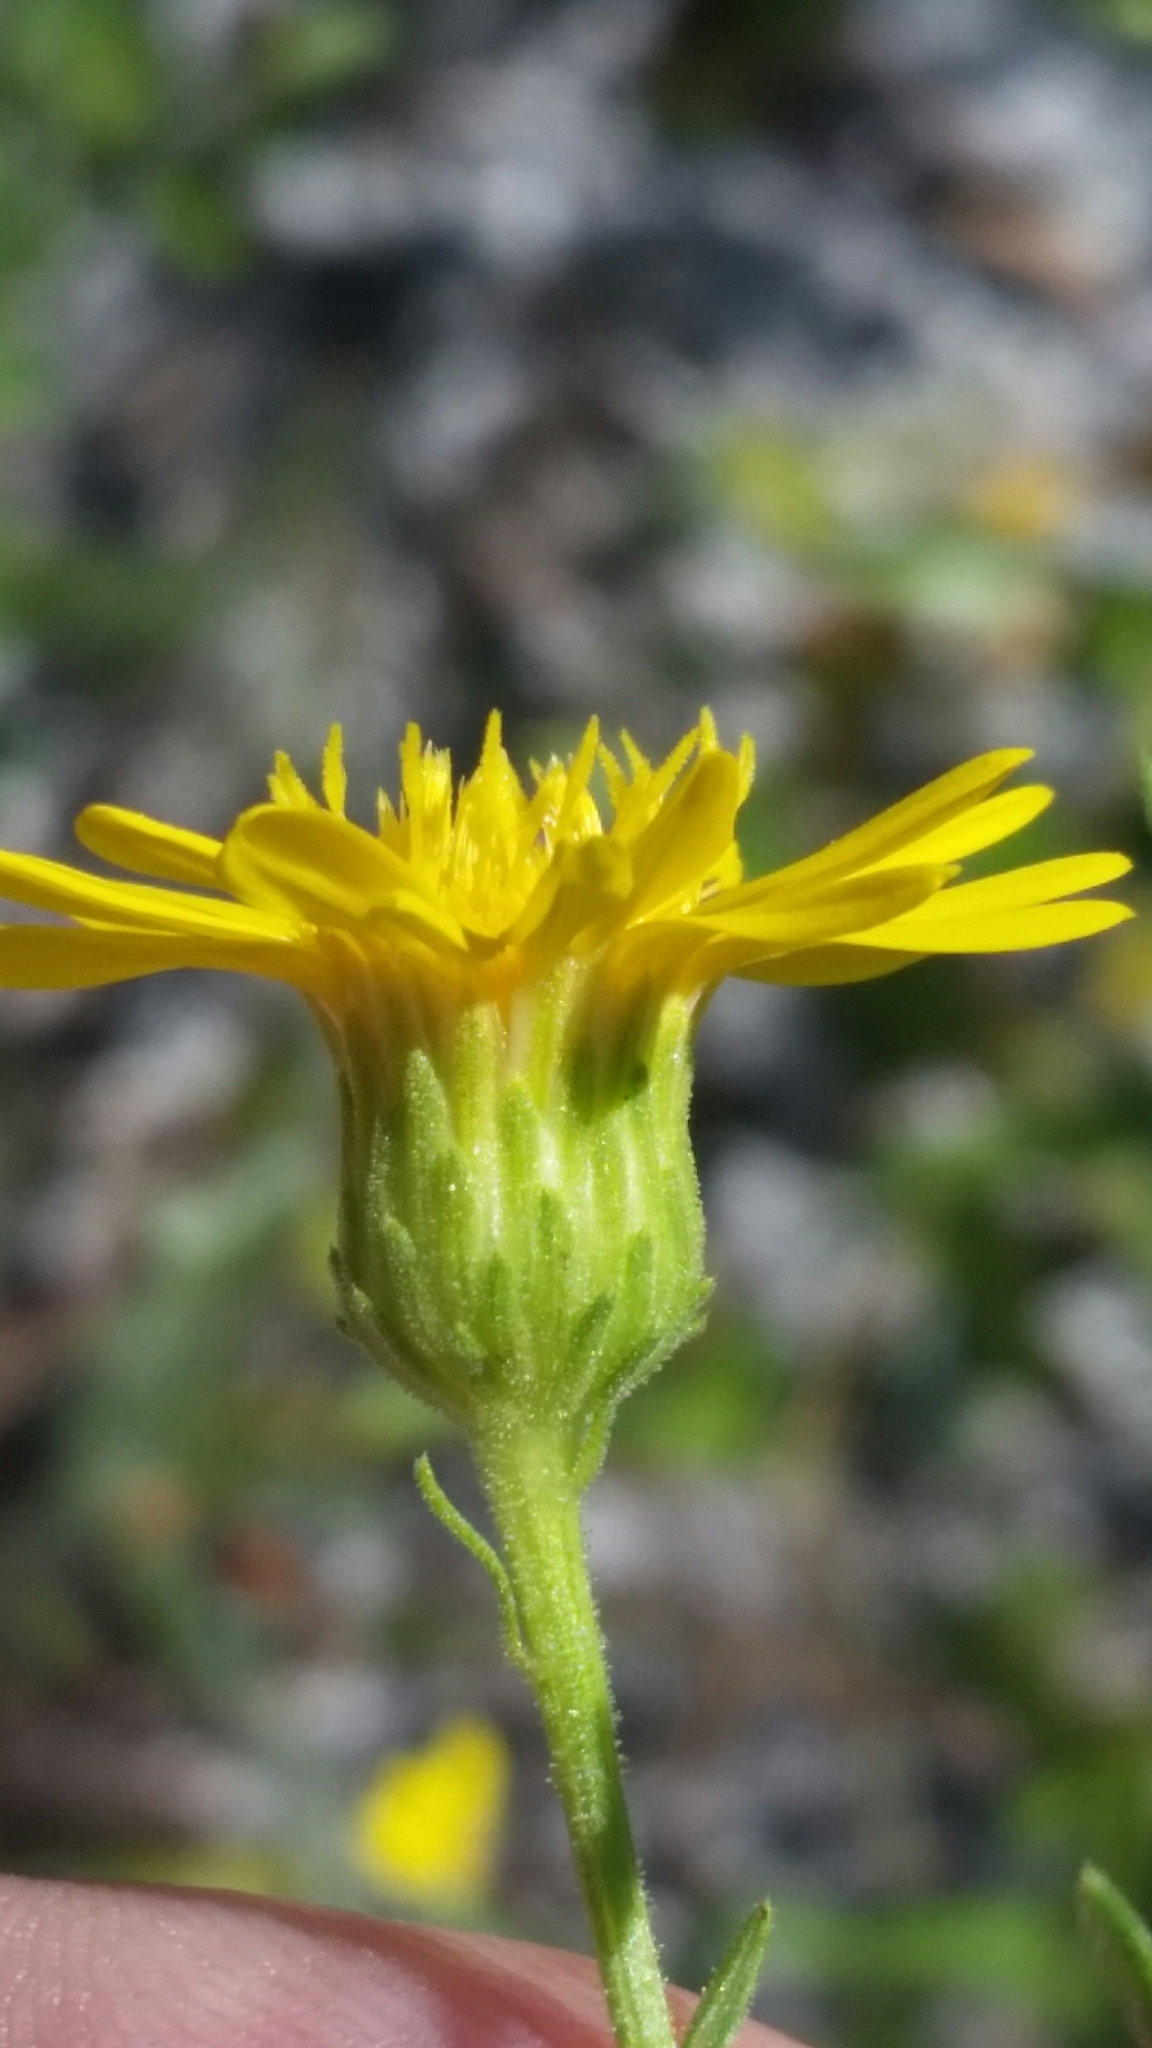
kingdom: Plantae
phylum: Tracheophyta
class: Magnoliopsida
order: Asterales
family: Asteraceae
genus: Chrysopsis
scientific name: Chrysopsis scabrella
